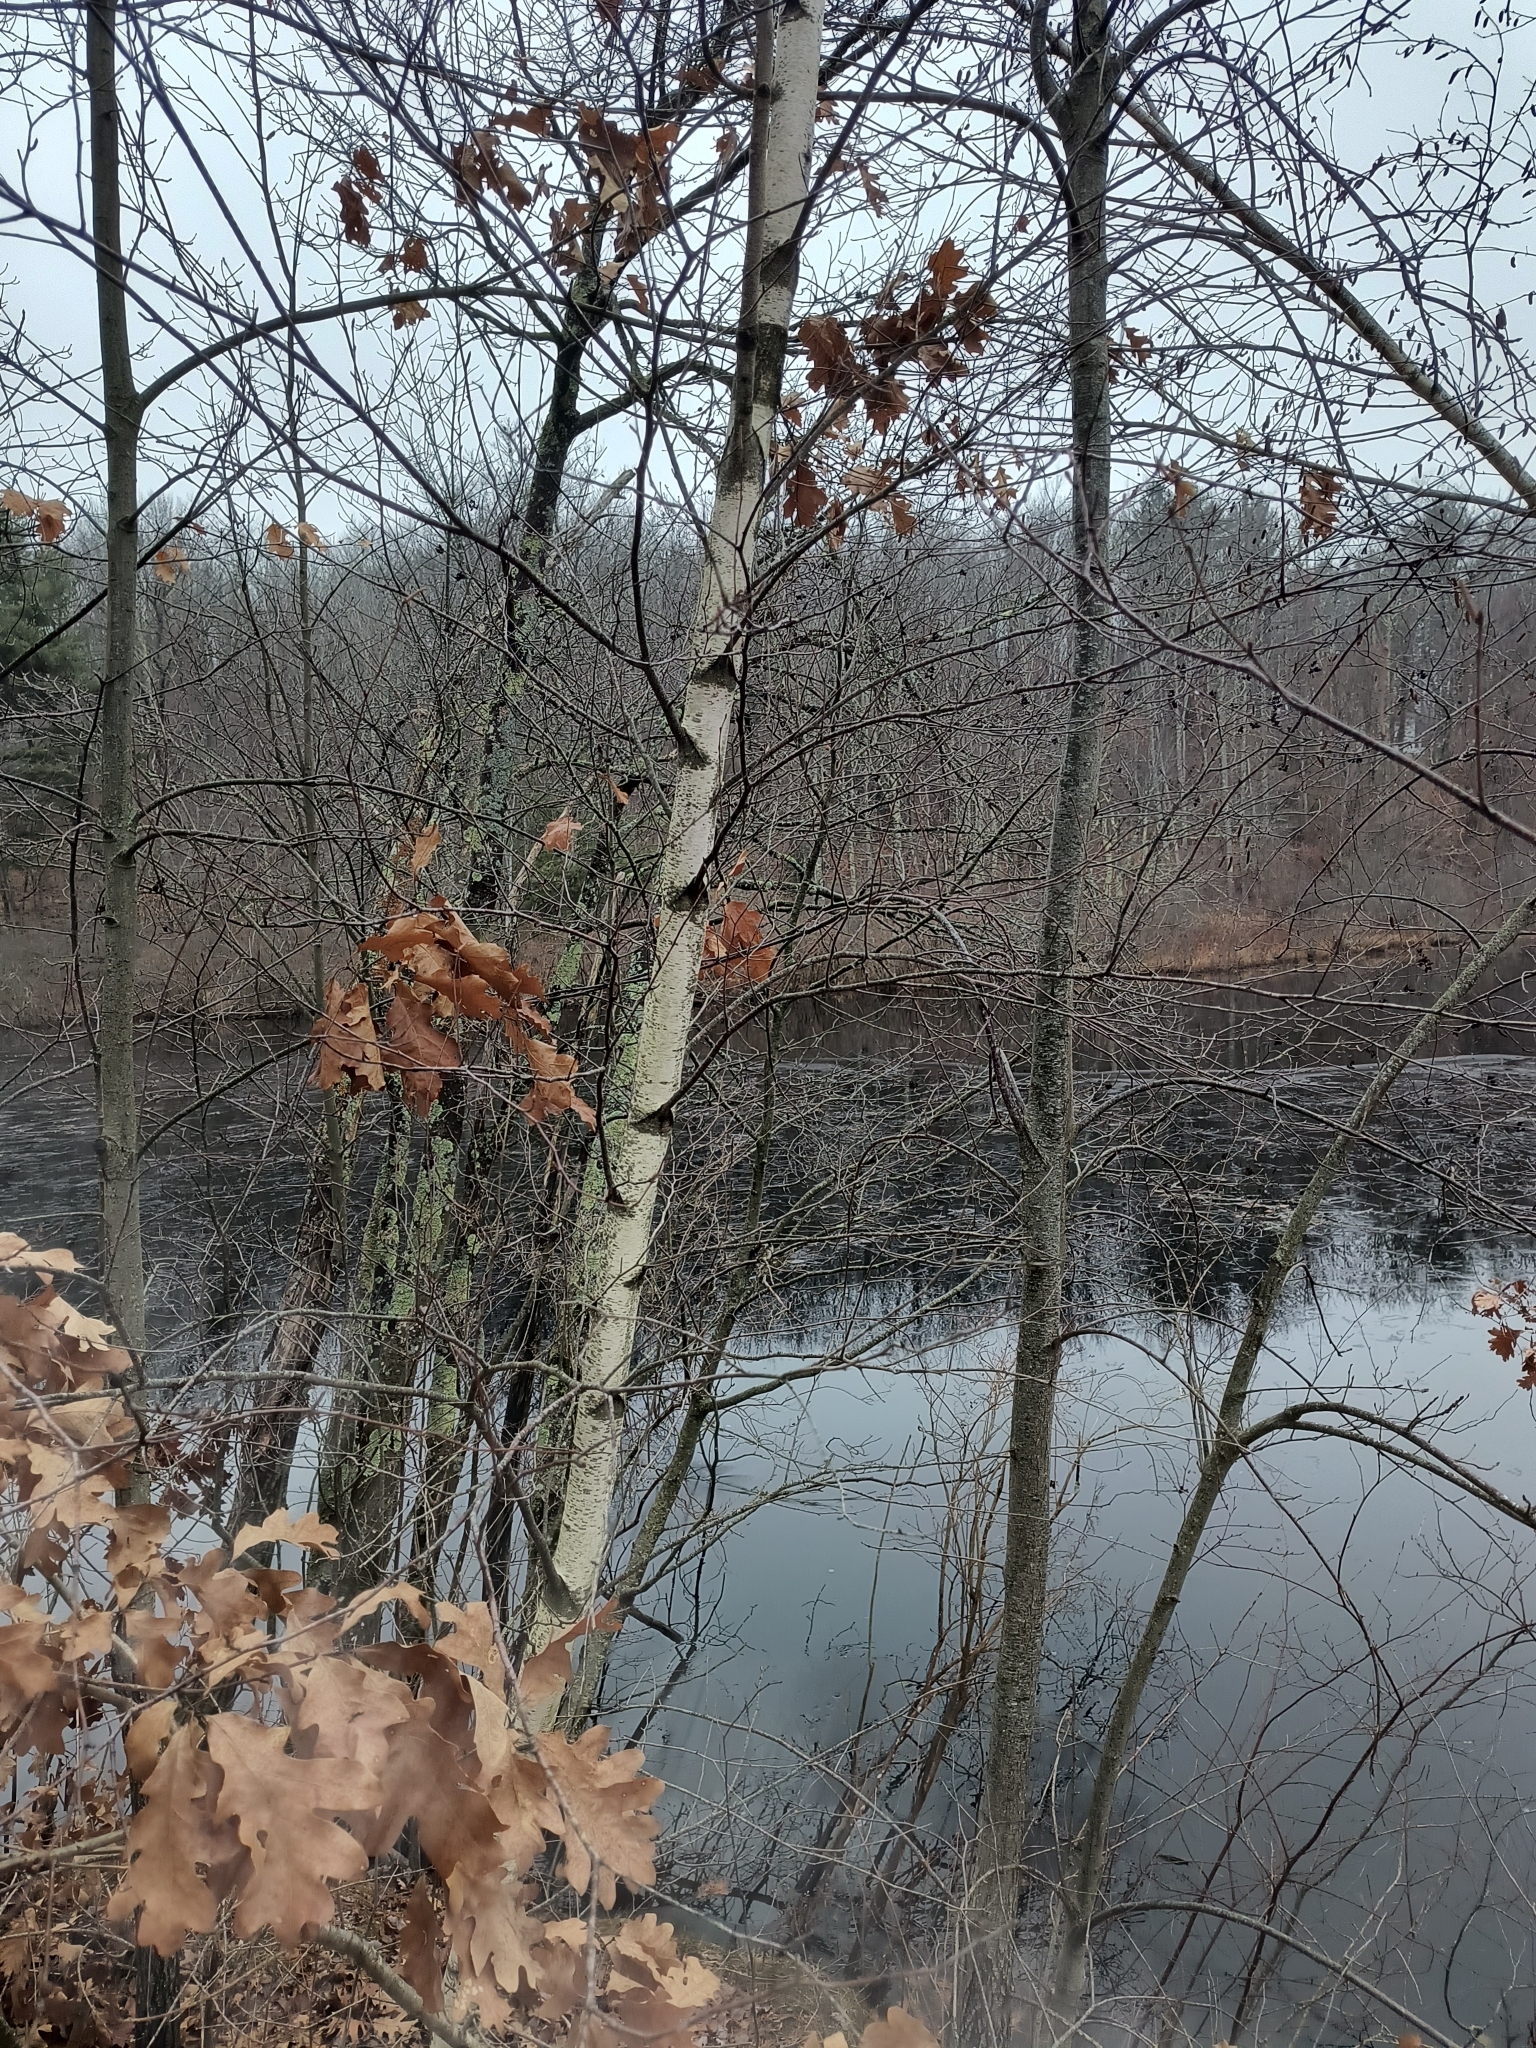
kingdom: Plantae
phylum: Tracheophyta
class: Magnoliopsida
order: Fagales
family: Betulaceae
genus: Betula
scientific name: Betula populifolia
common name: Fire birch
